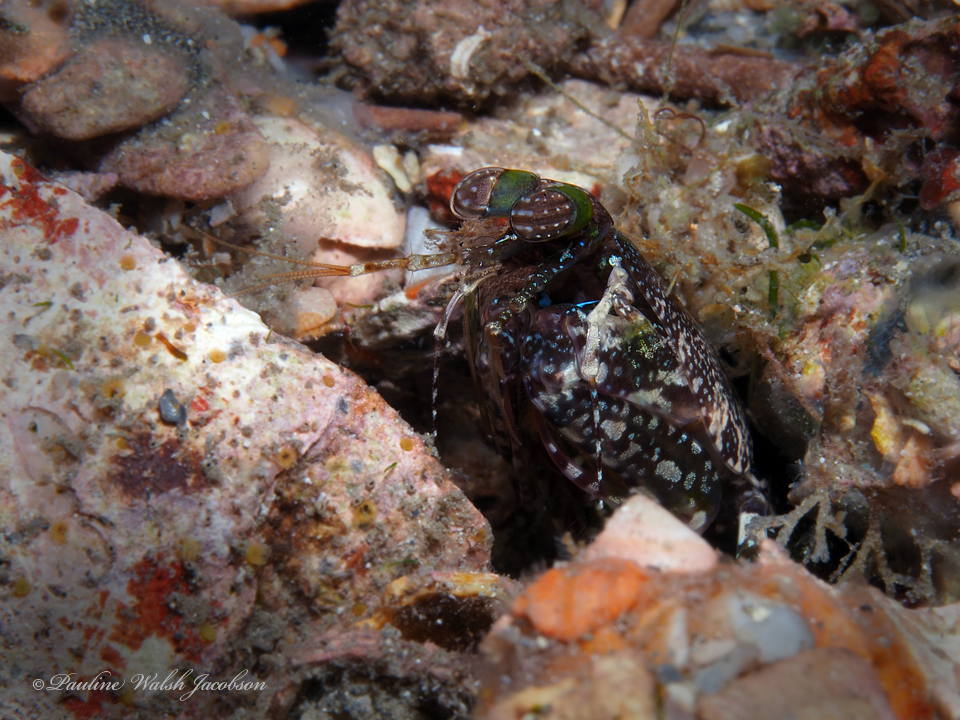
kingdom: Animalia
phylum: Arthropoda
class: Malacostraca
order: Stomatopoda
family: Pseudosquillidae
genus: Pseudosquilla
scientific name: Pseudosquilla ciliata
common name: Ciliated false squilla
